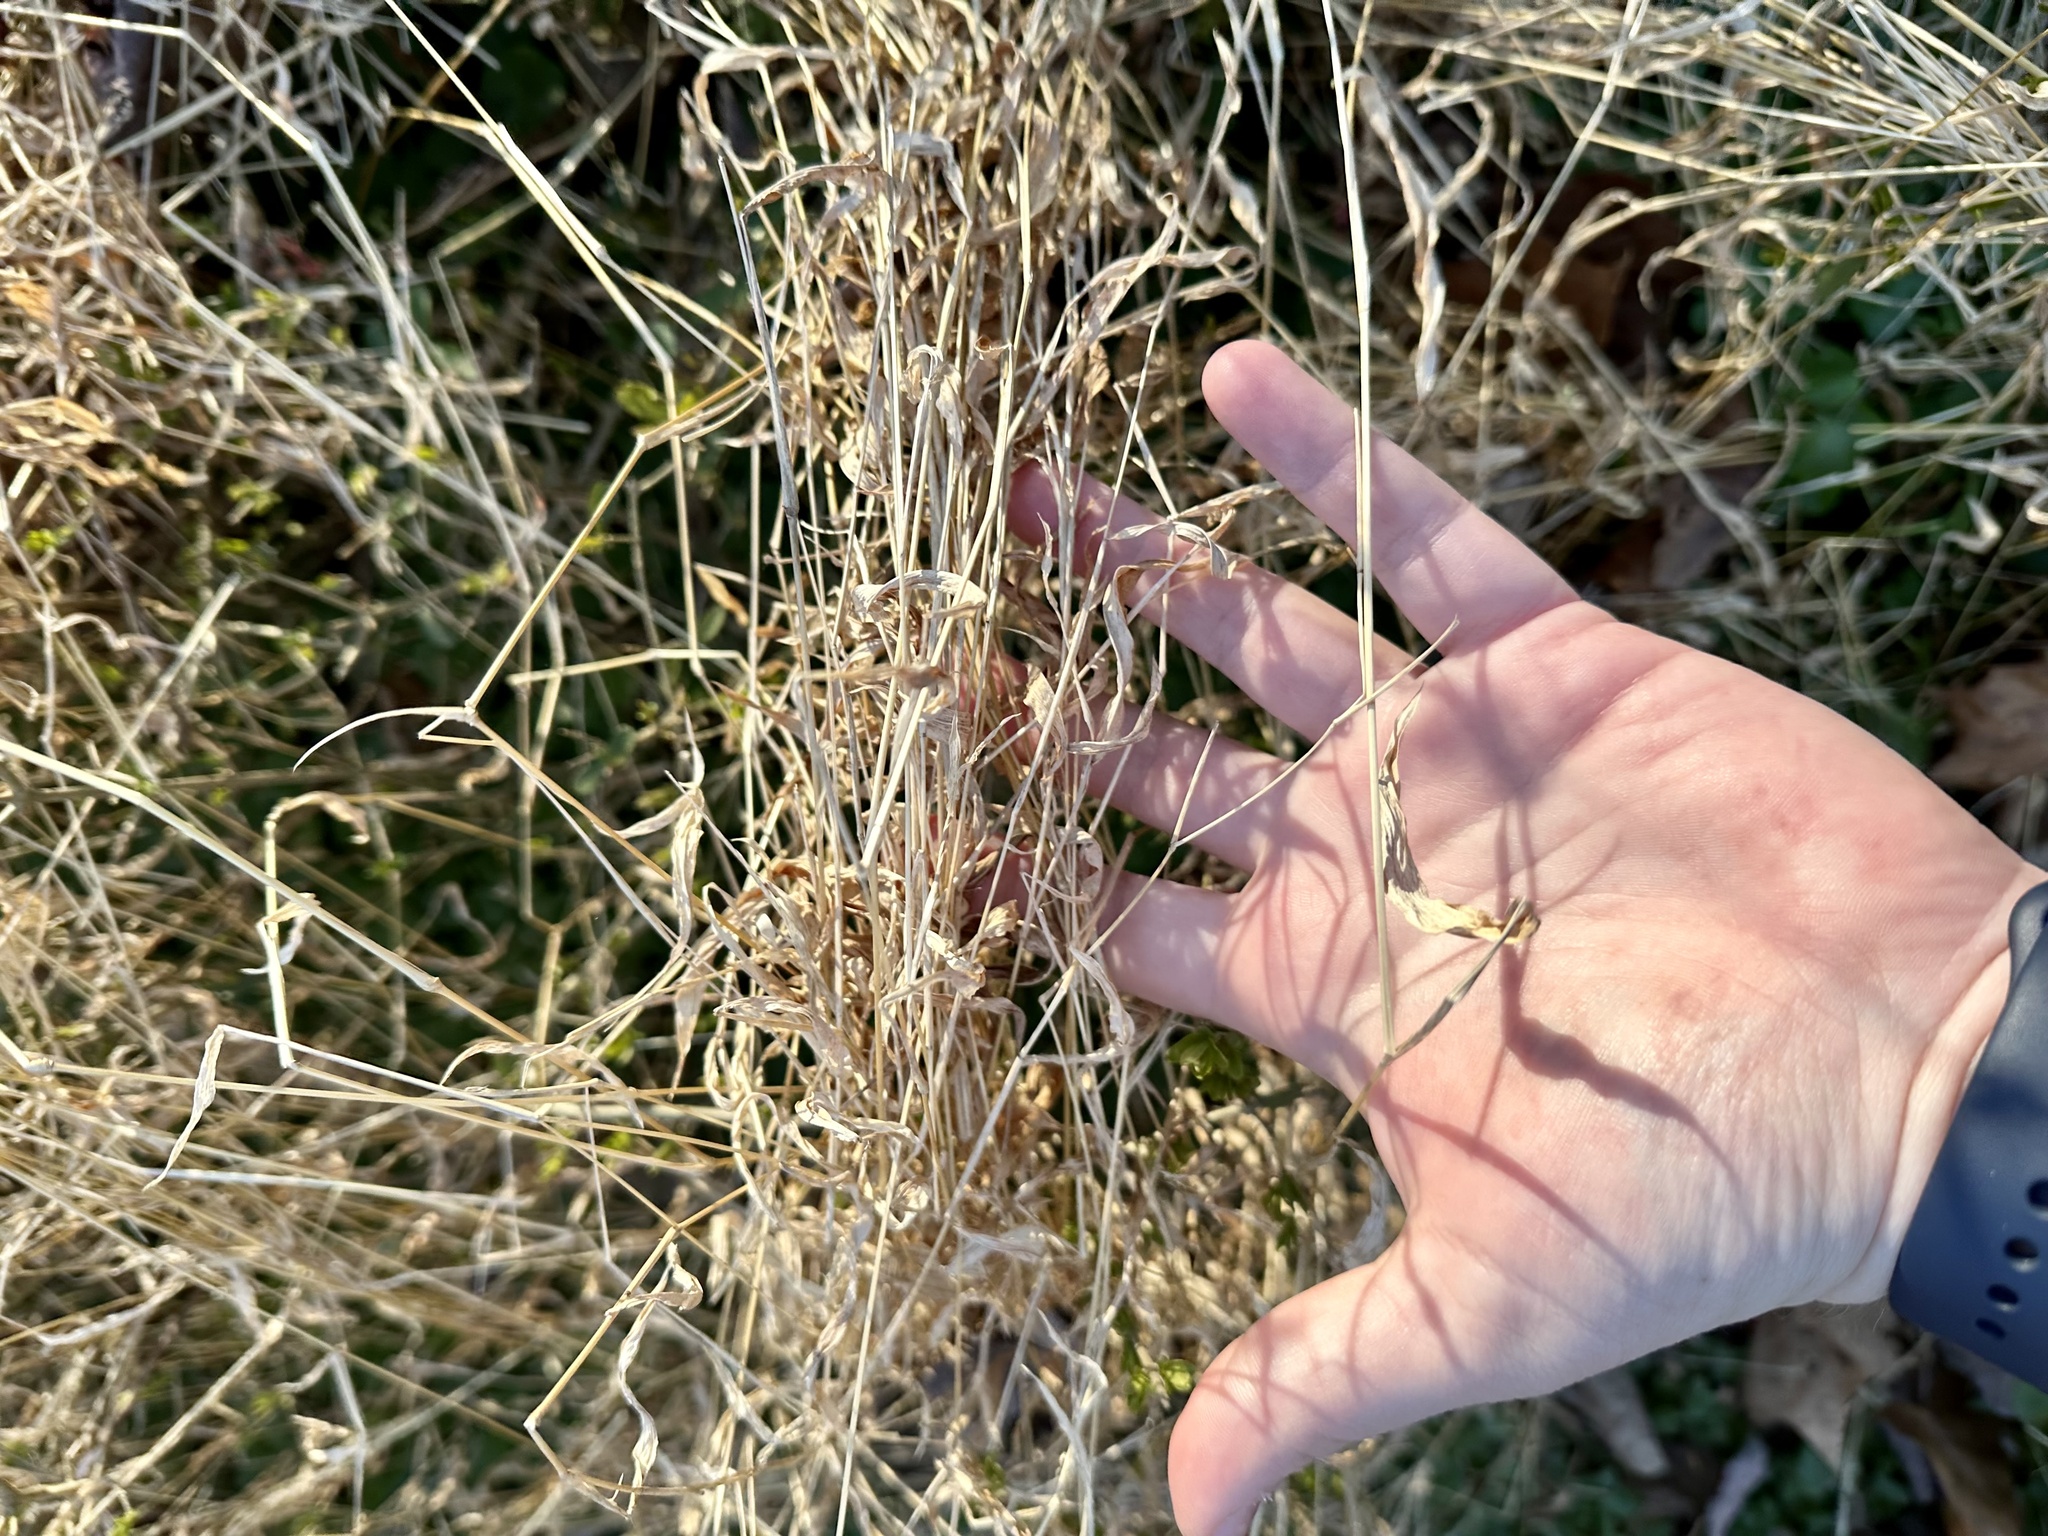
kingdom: Plantae
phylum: Tracheophyta
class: Liliopsida
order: Poales
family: Poaceae
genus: Microstegium
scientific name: Microstegium vimineum
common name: Japanese stiltgrass
